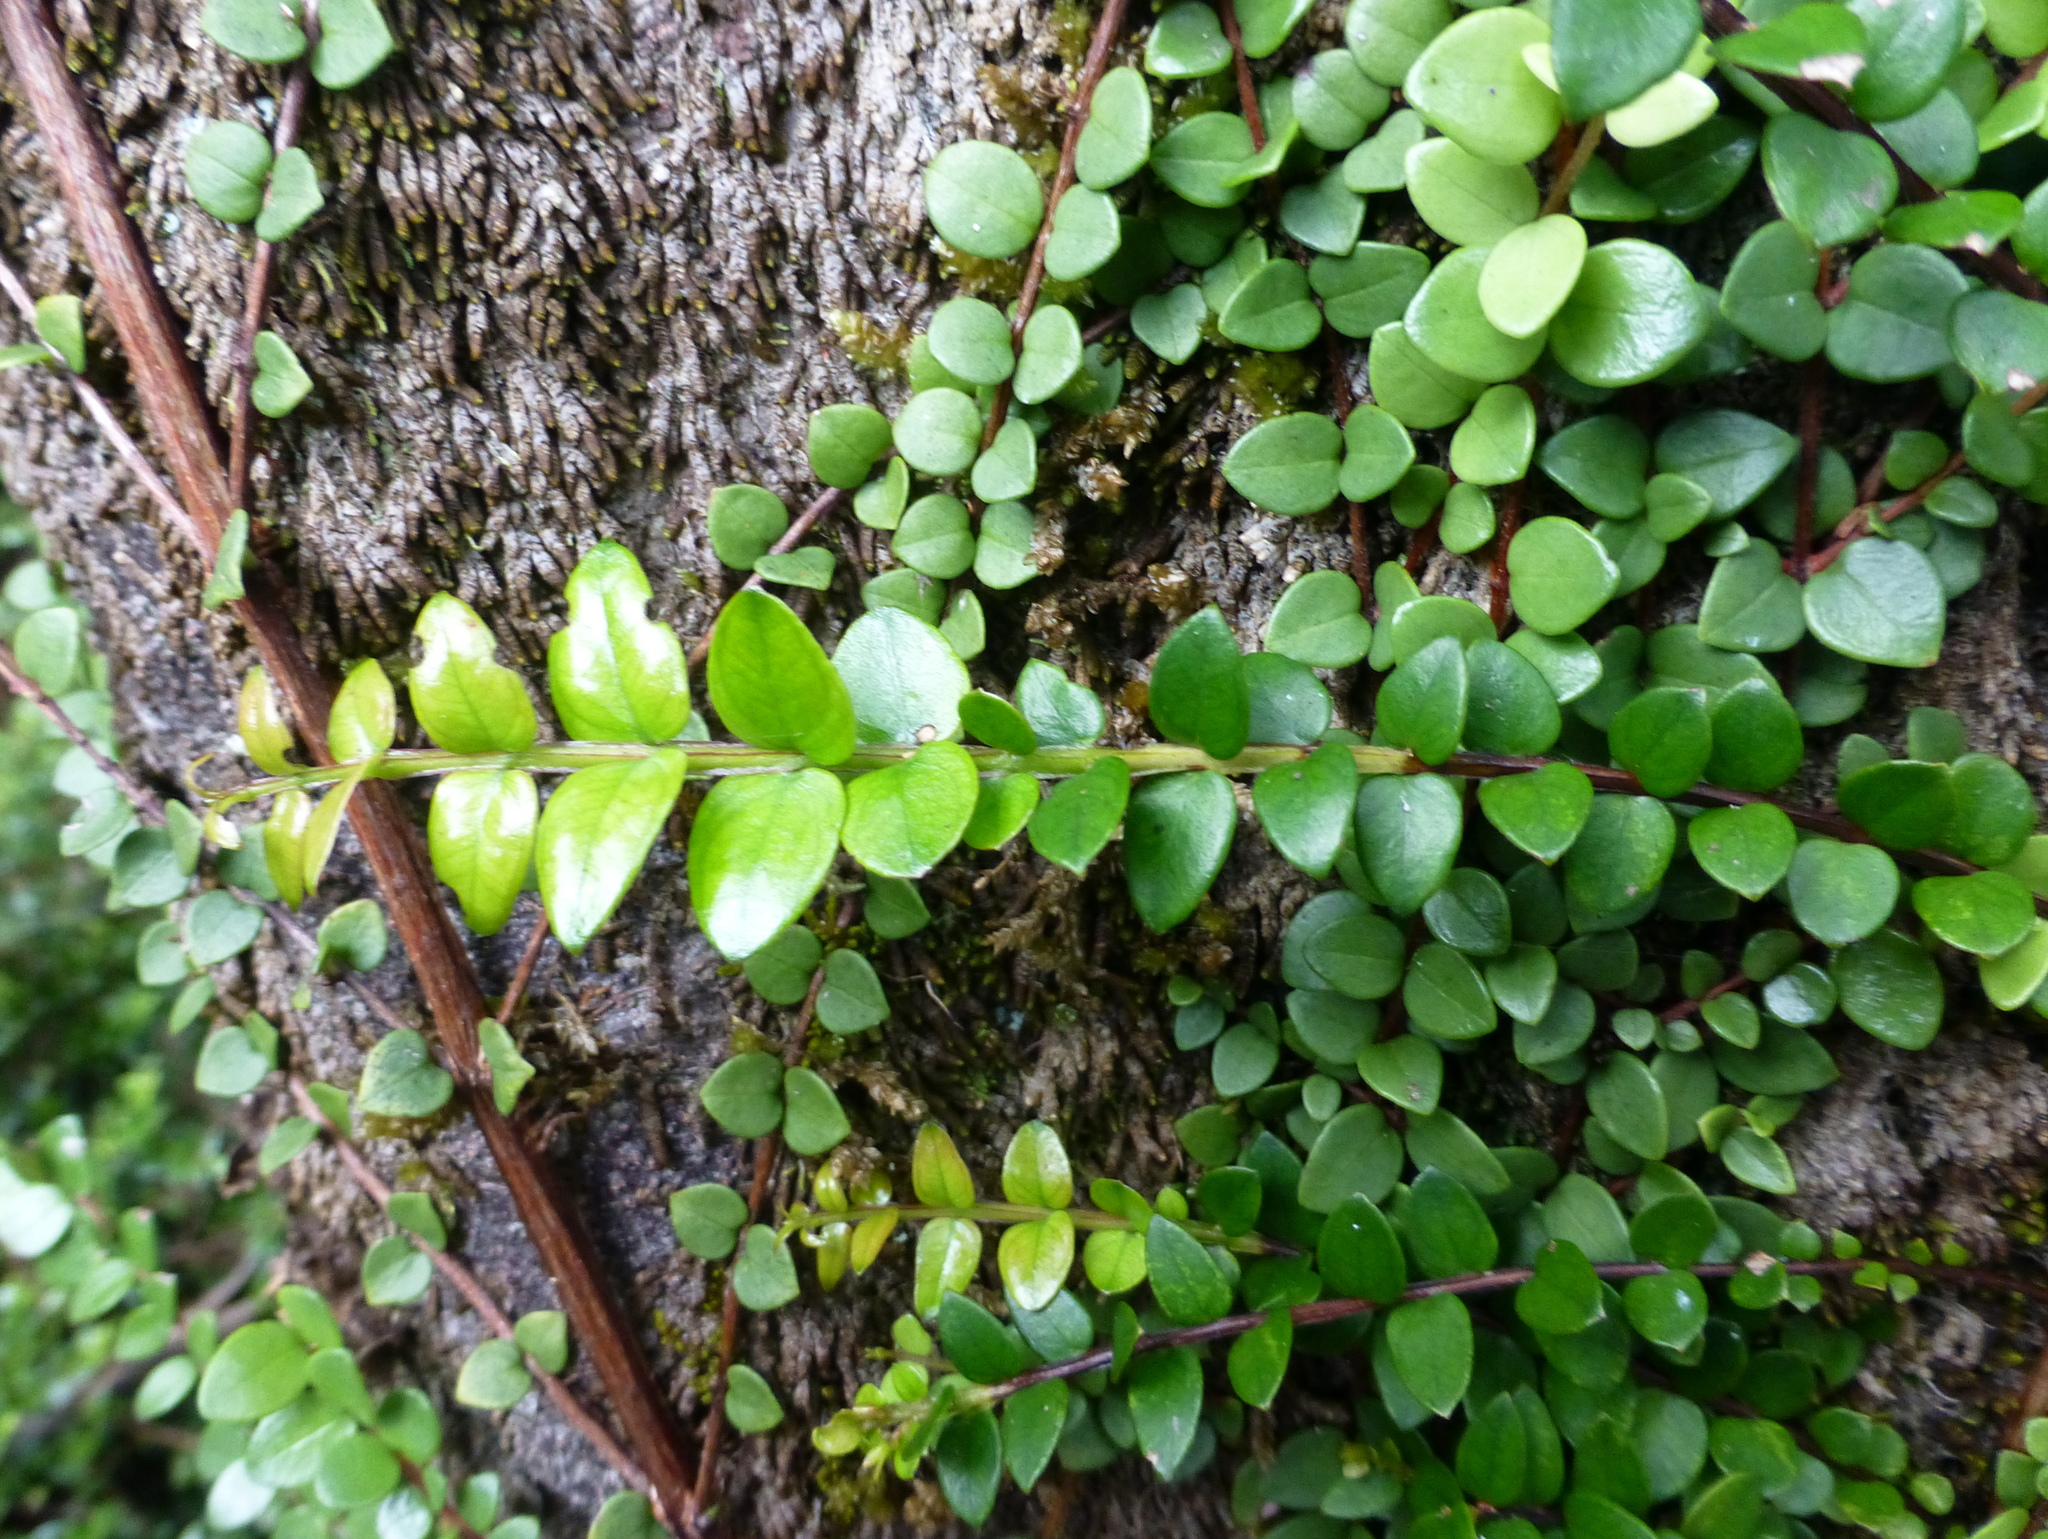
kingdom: Plantae
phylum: Tracheophyta
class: Magnoliopsida
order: Myrtales
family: Myrtaceae
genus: Metrosideros
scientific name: Metrosideros diffusa
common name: Small ratavine
